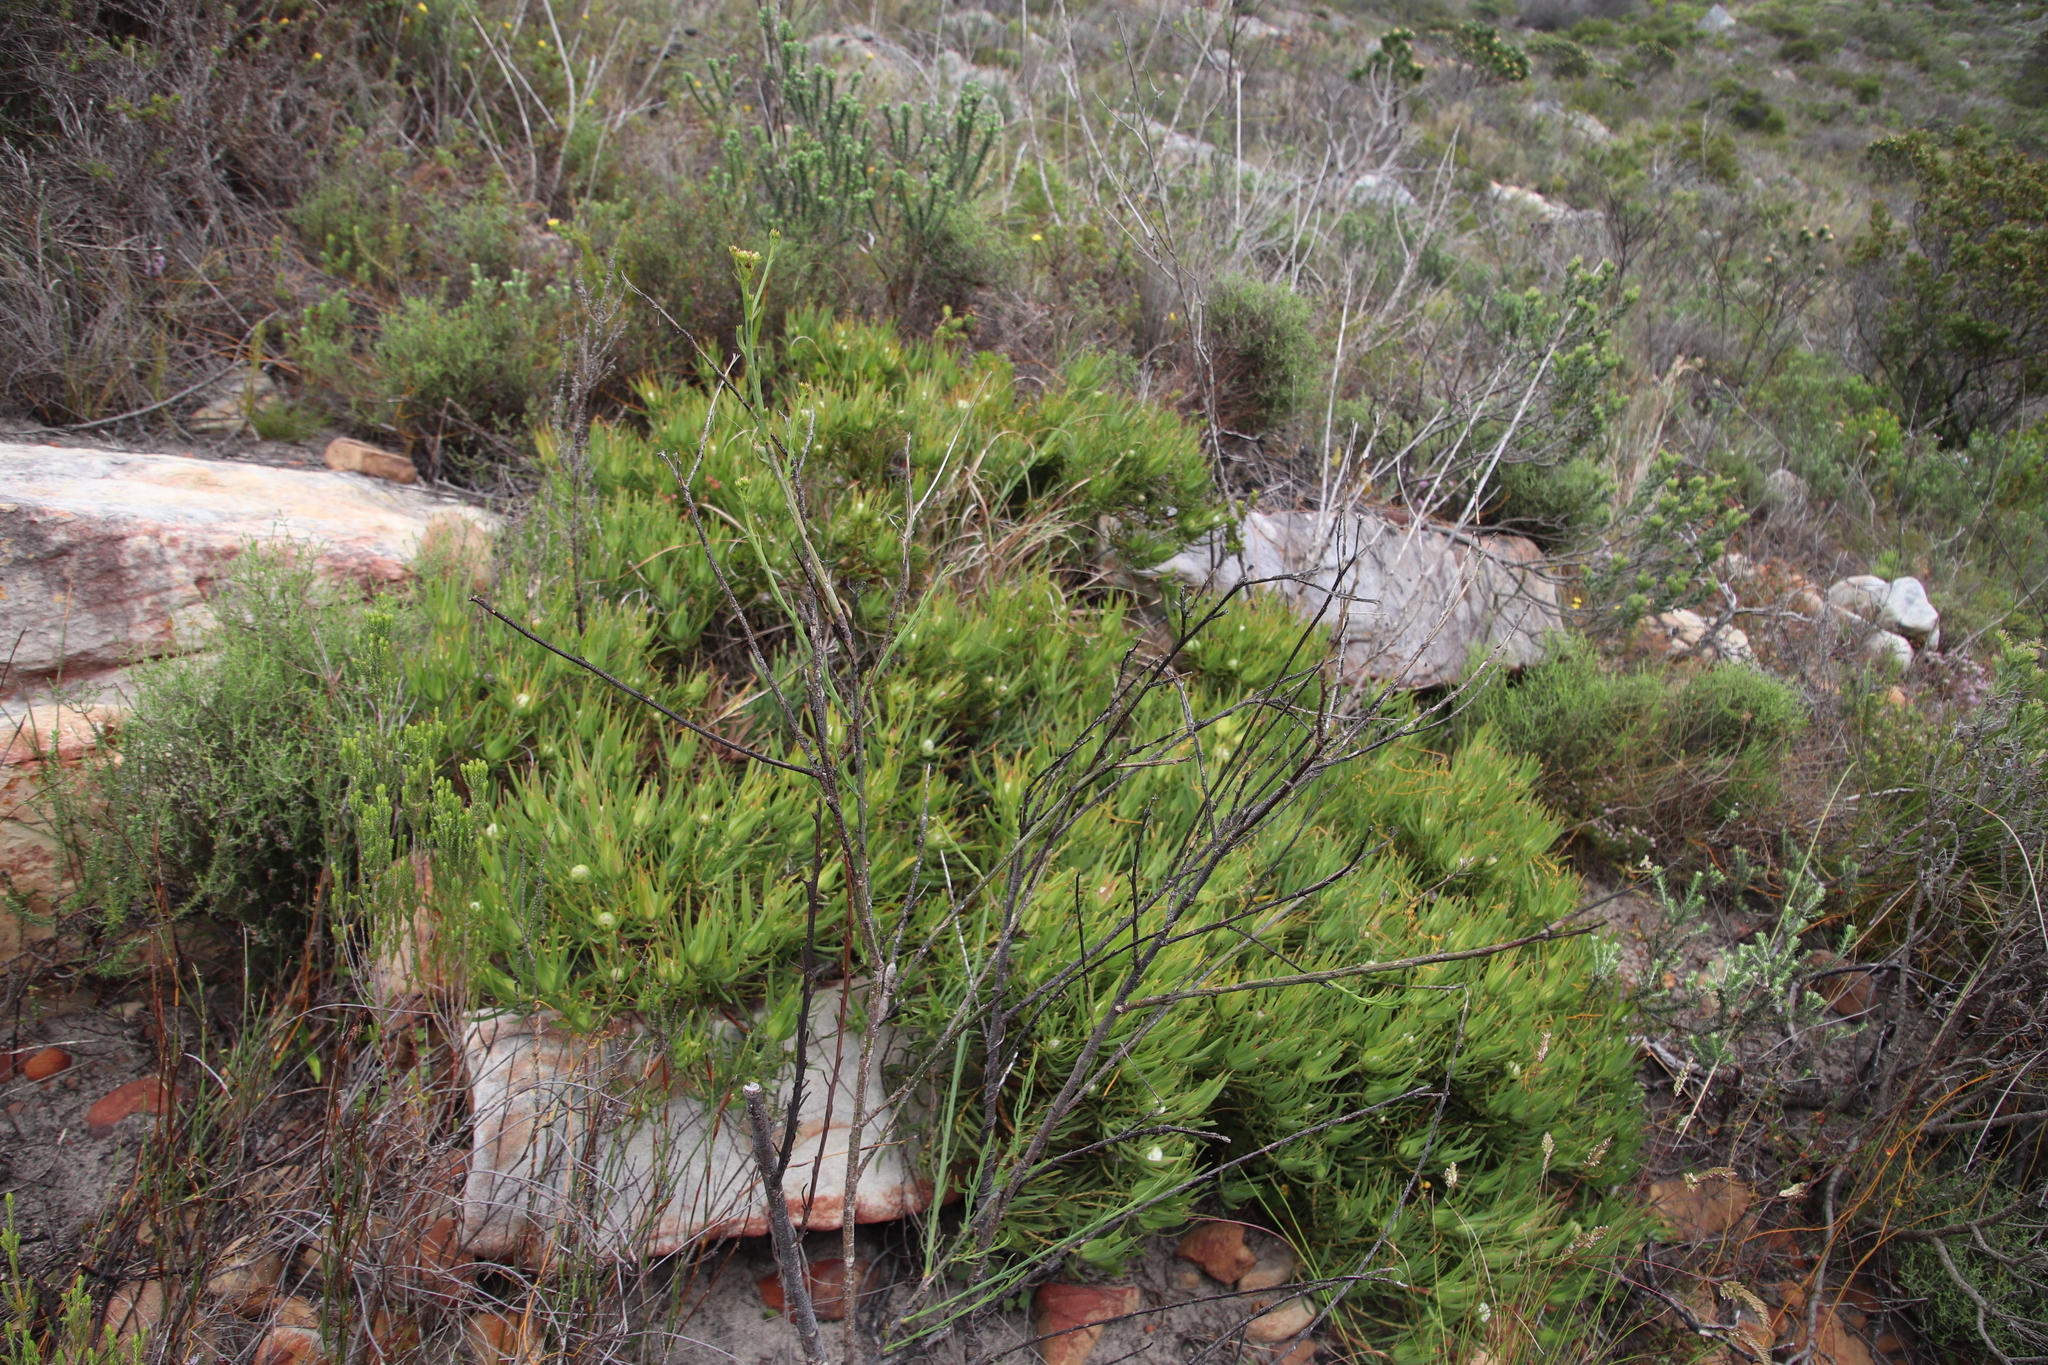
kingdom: Plantae
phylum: Tracheophyta
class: Magnoliopsida
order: Proteales
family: Proteaceae
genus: Leucadendron
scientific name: Leucadendron salignum
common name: Common sunshine conebush
